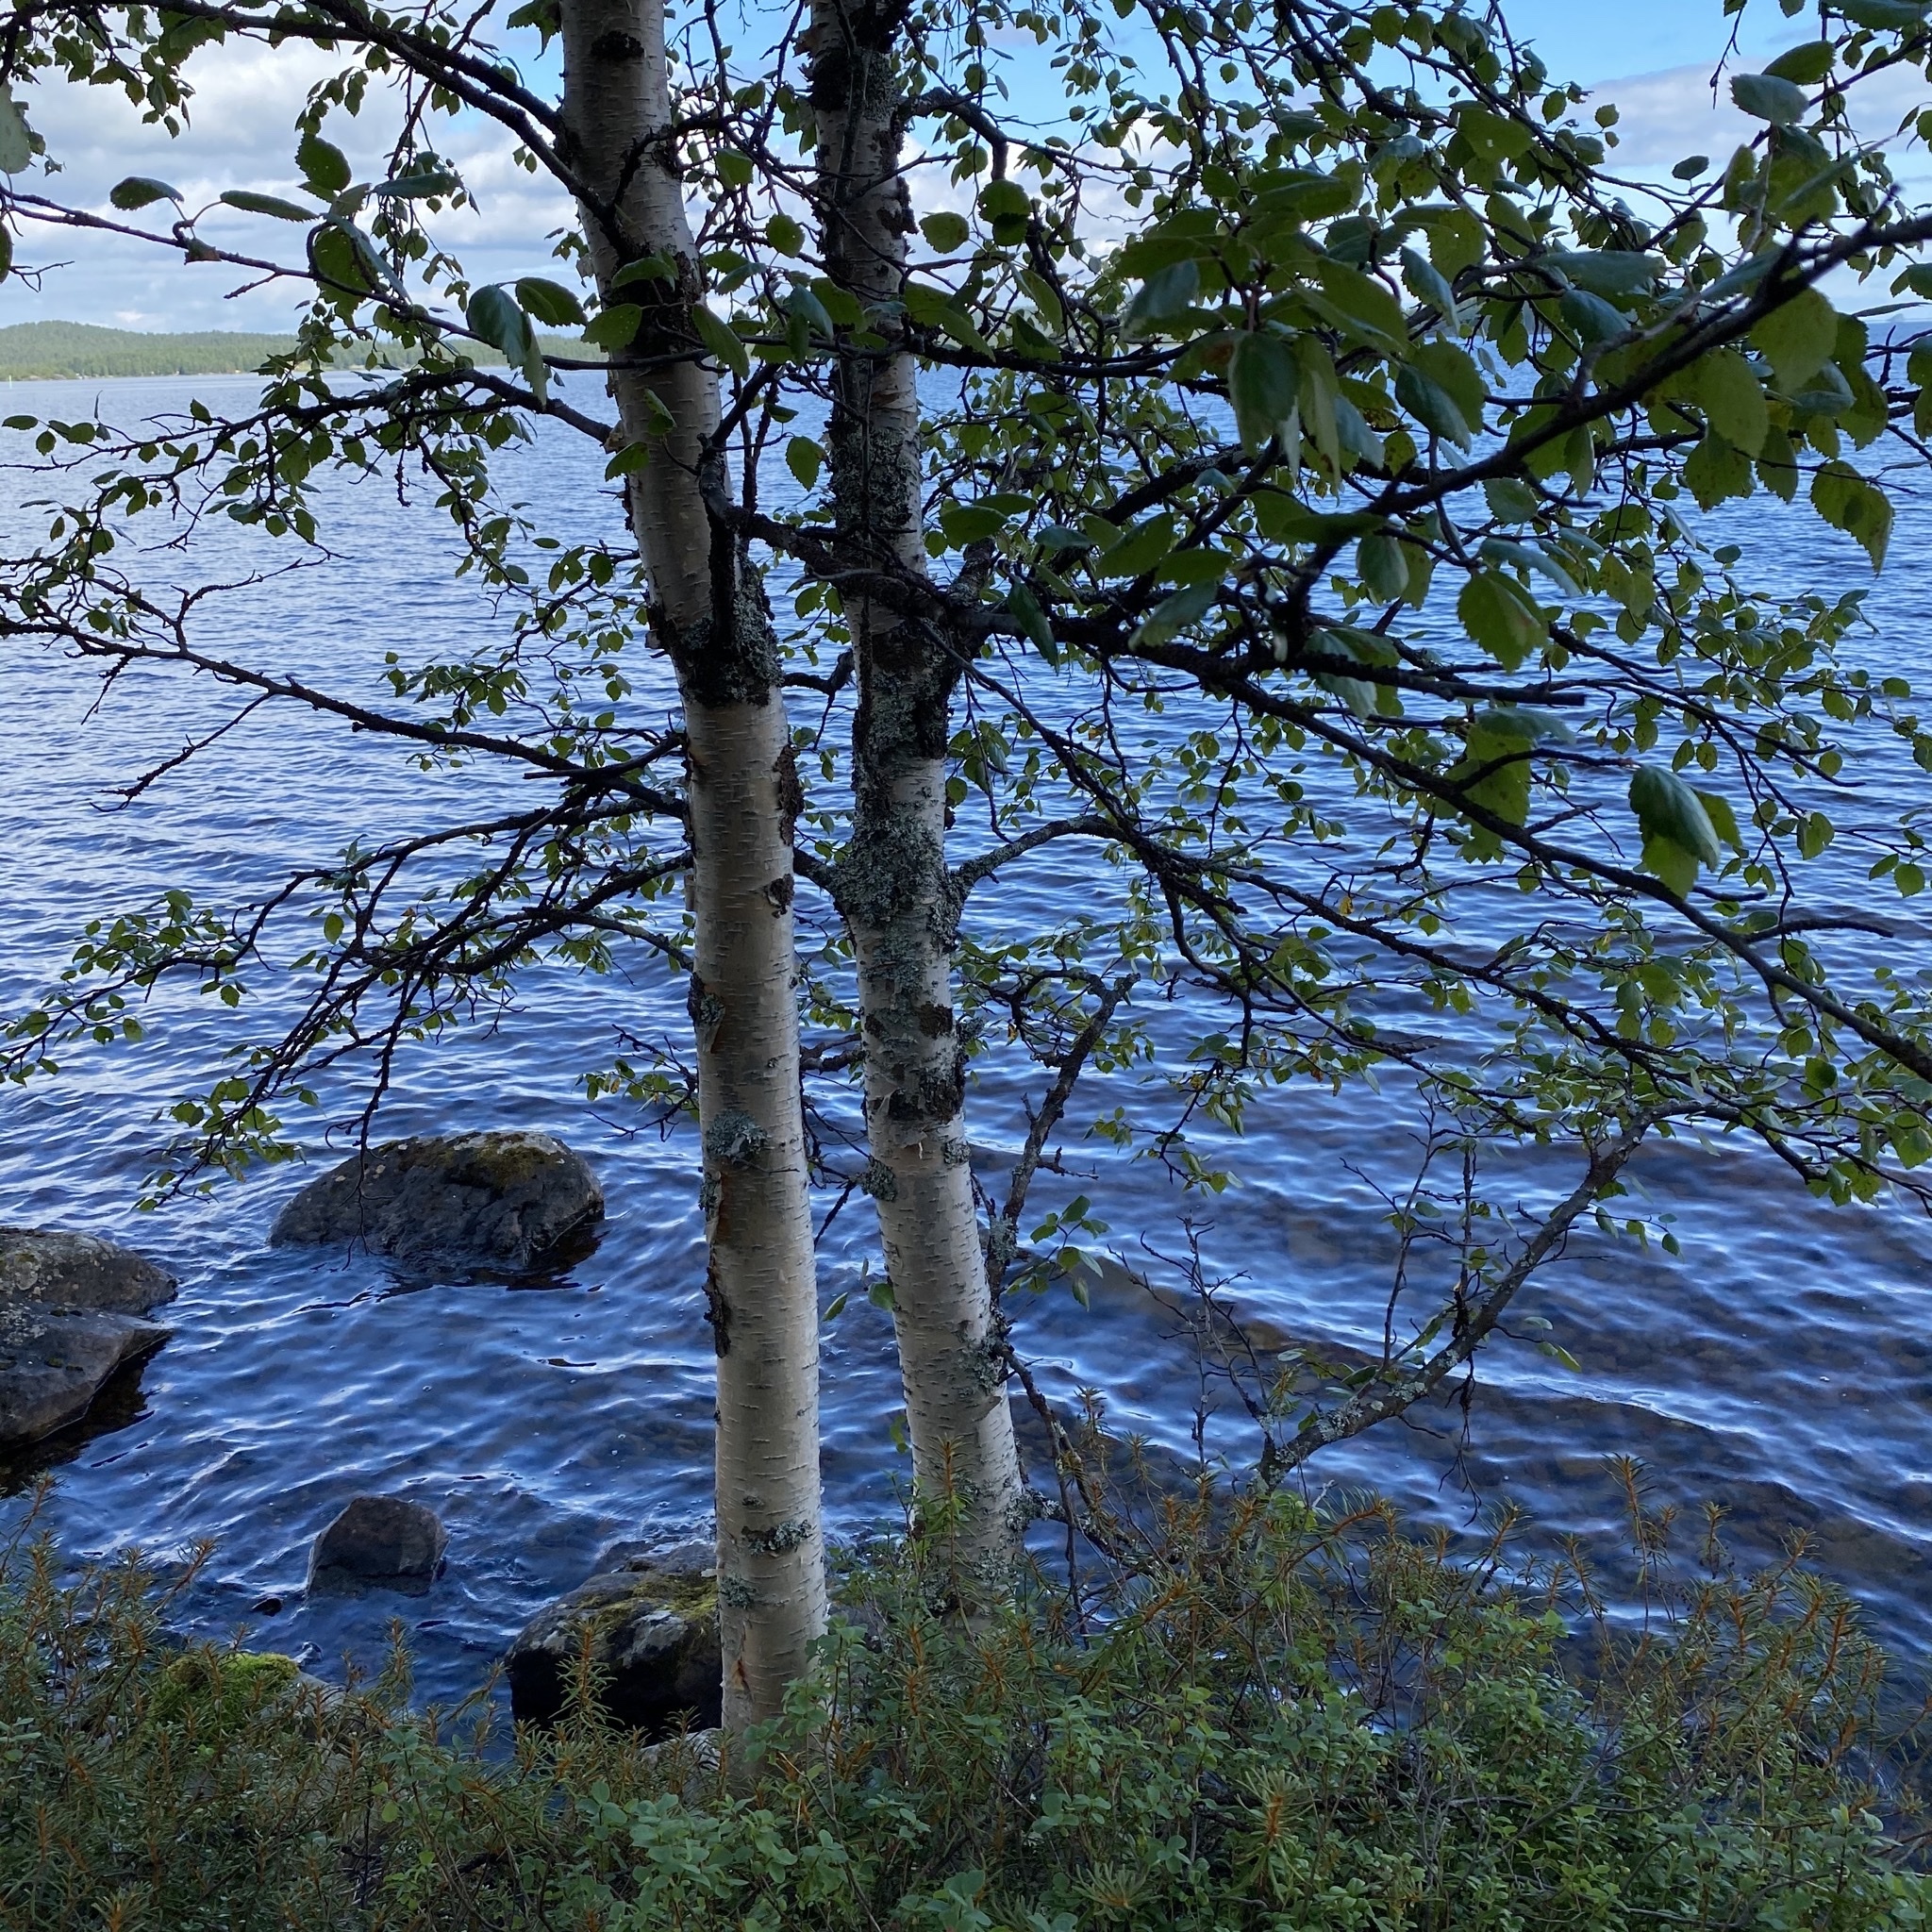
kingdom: Plantae
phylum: Tracheophyta
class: Magnoliopsida
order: Fagales
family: Betulaceae
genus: Betula
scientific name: Betula pubescens
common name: Downy birch
